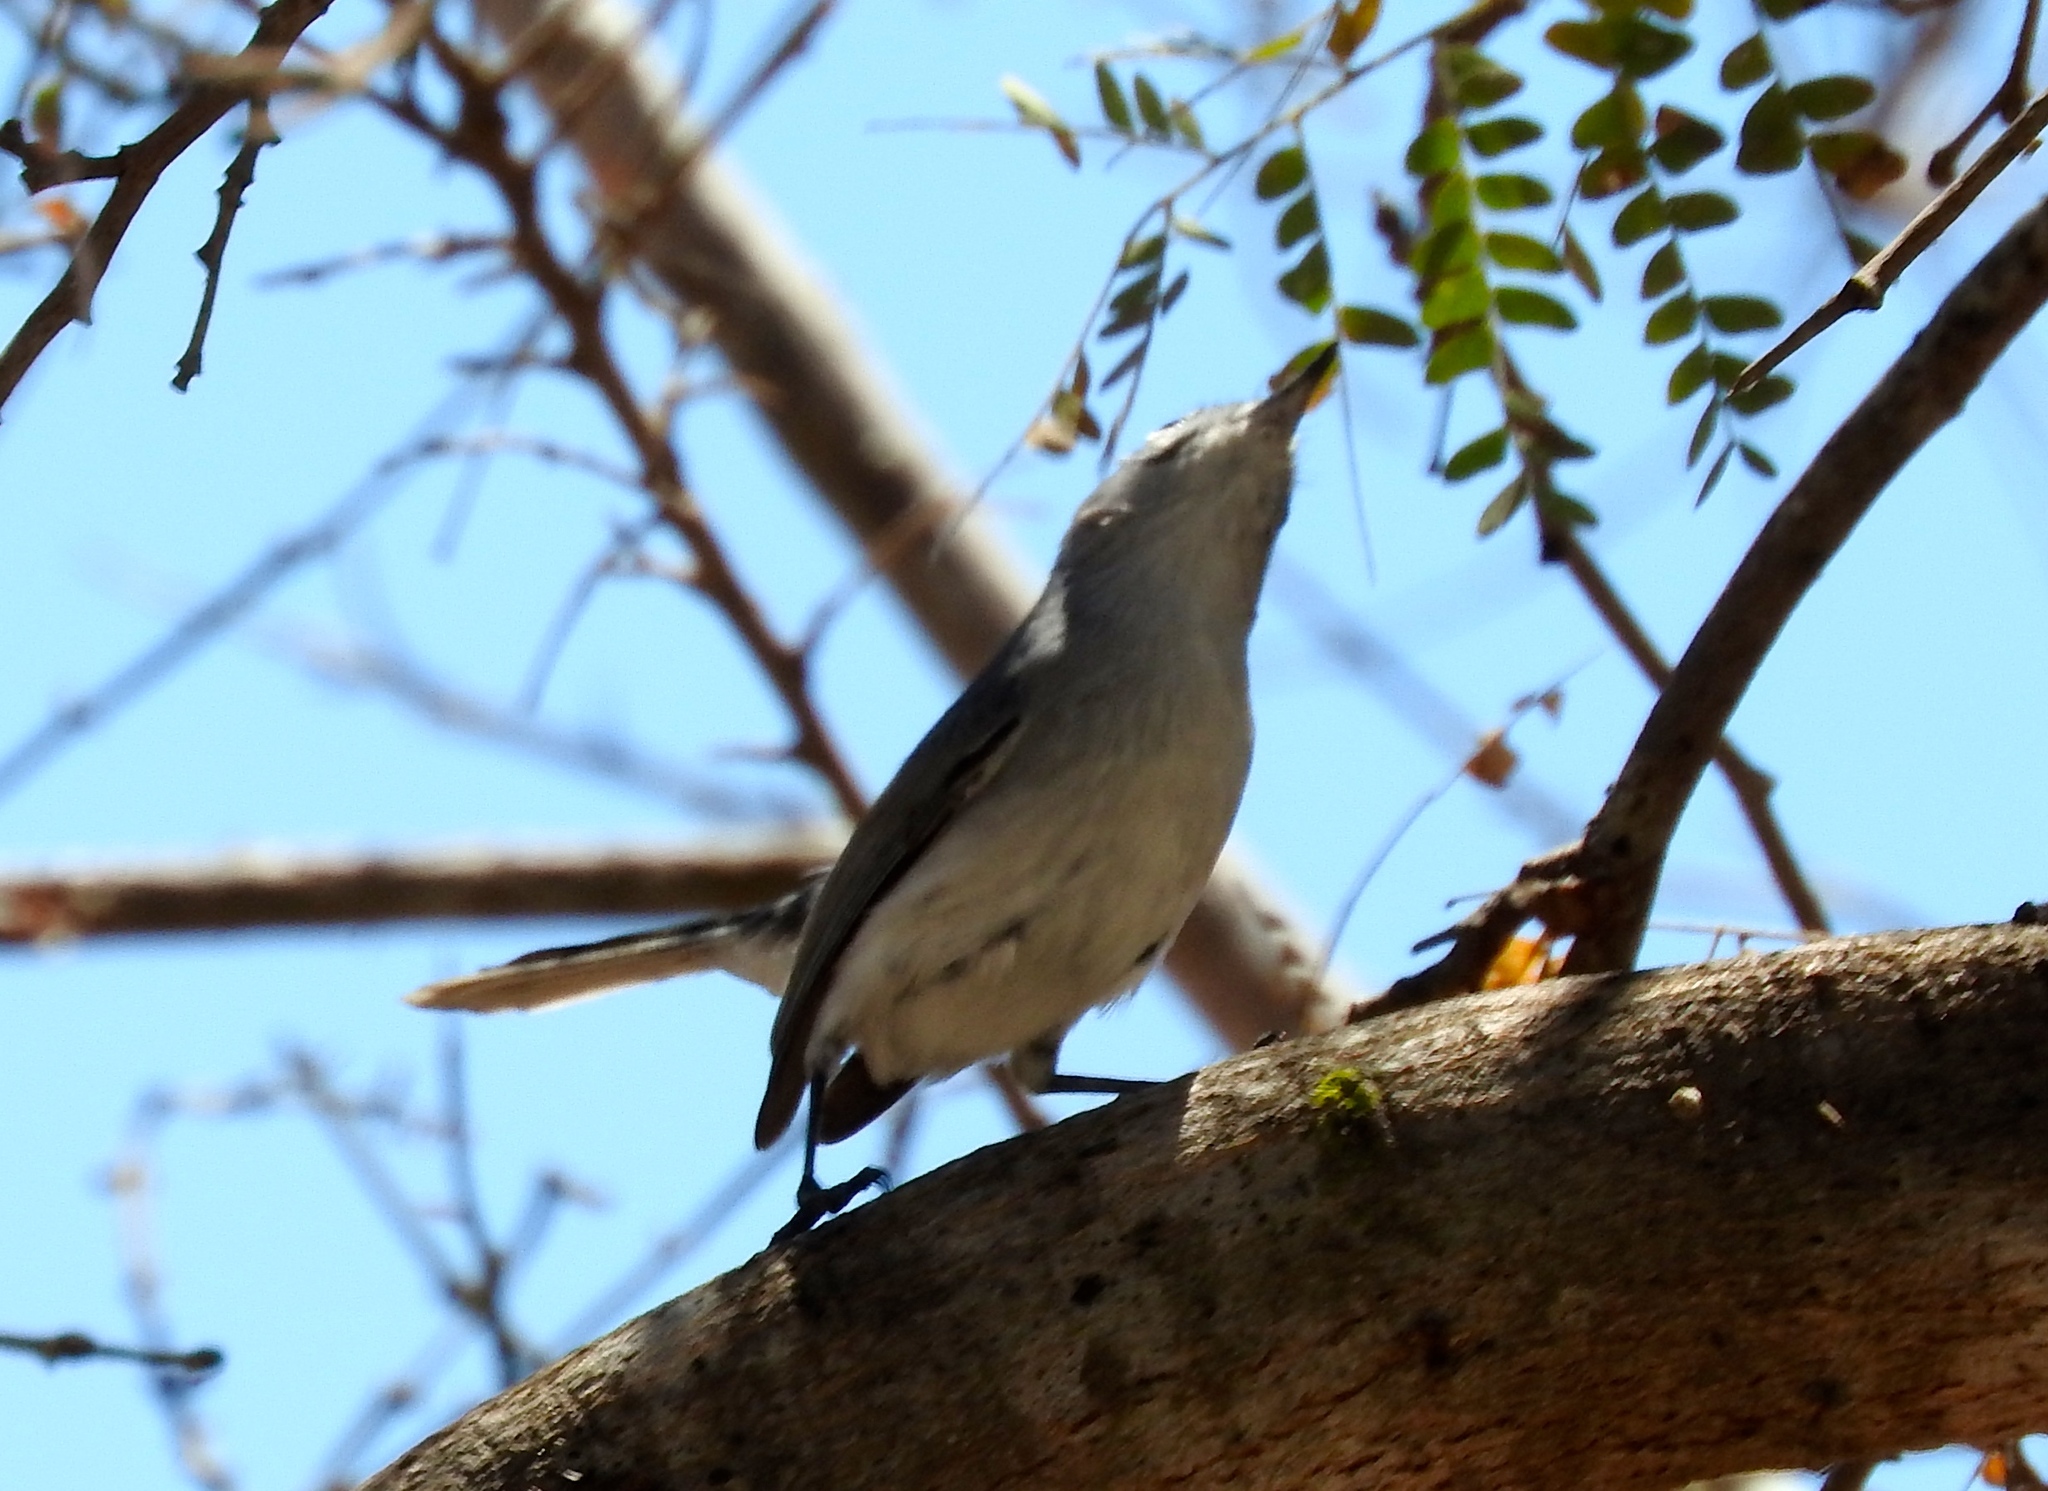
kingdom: Animalia
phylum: Chordata
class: Aves
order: Passeriformes
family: Polioptilidae
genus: Polioptila
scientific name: Polioptila caerulea
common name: Blue-gray gnatcatcher
